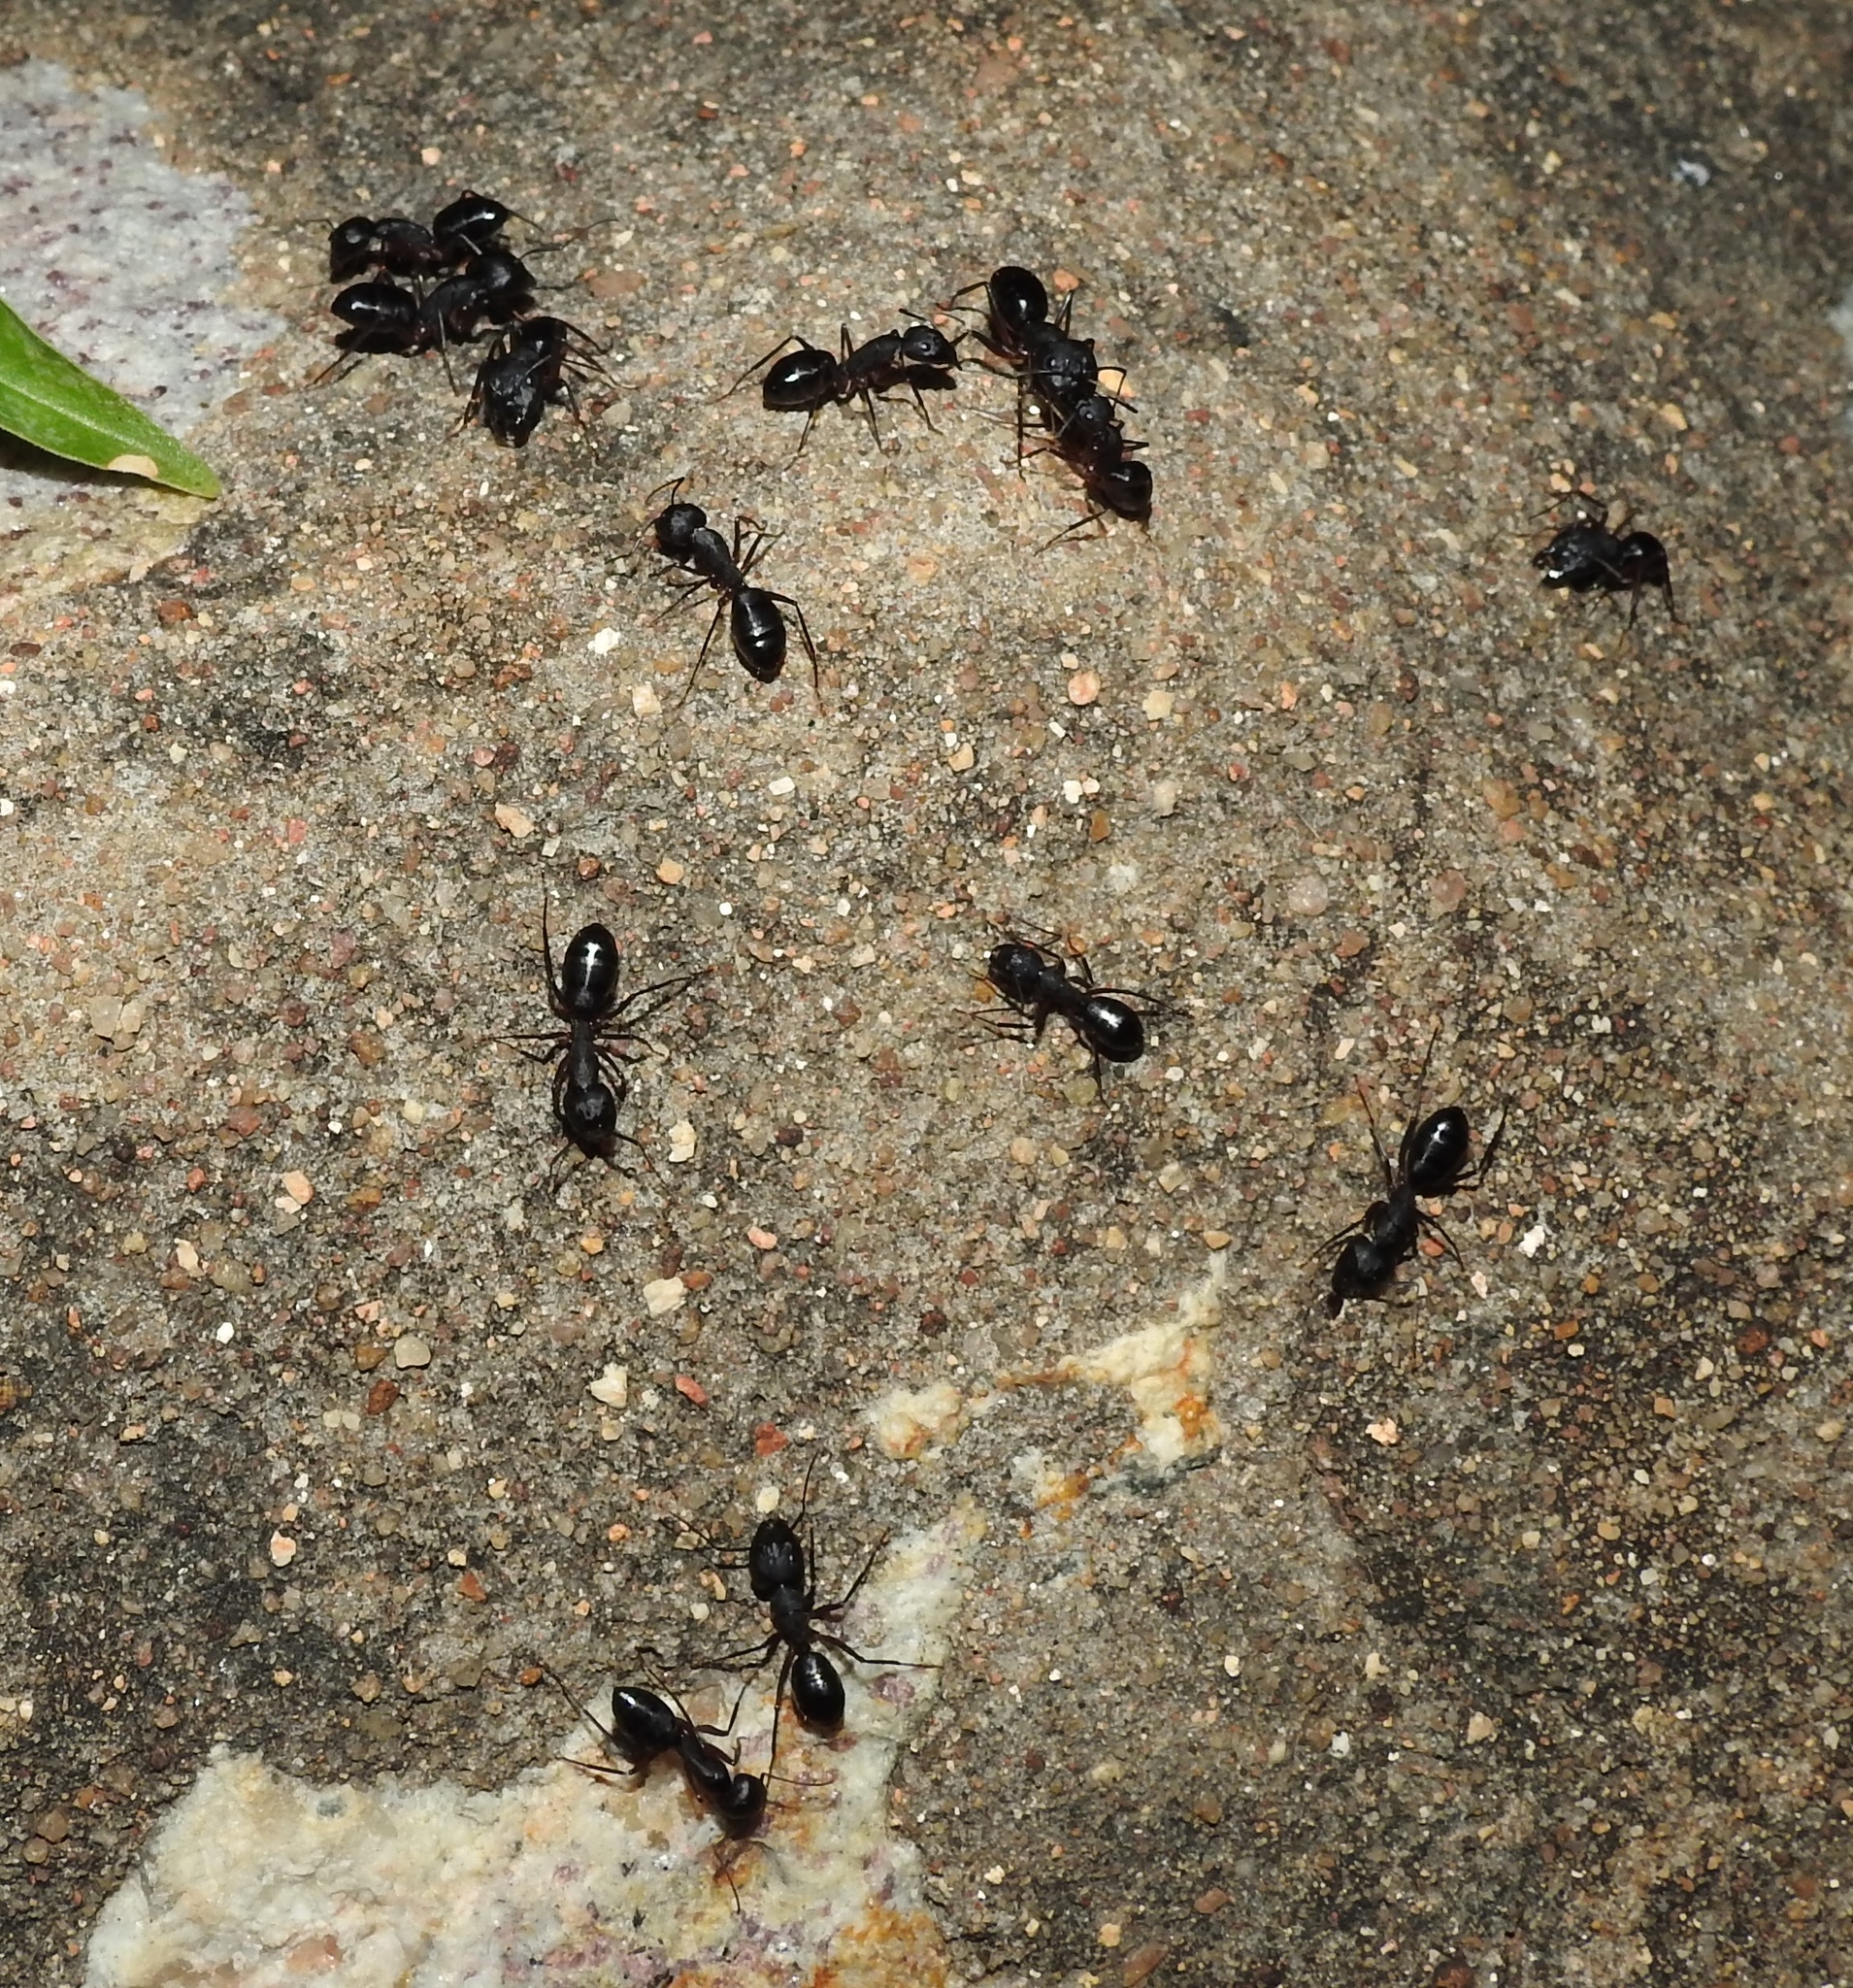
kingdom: Animalia
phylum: Arthropoda
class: Insecta
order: Hymenoptera
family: Formicidae
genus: Camponotus
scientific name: Camponotus compressus
